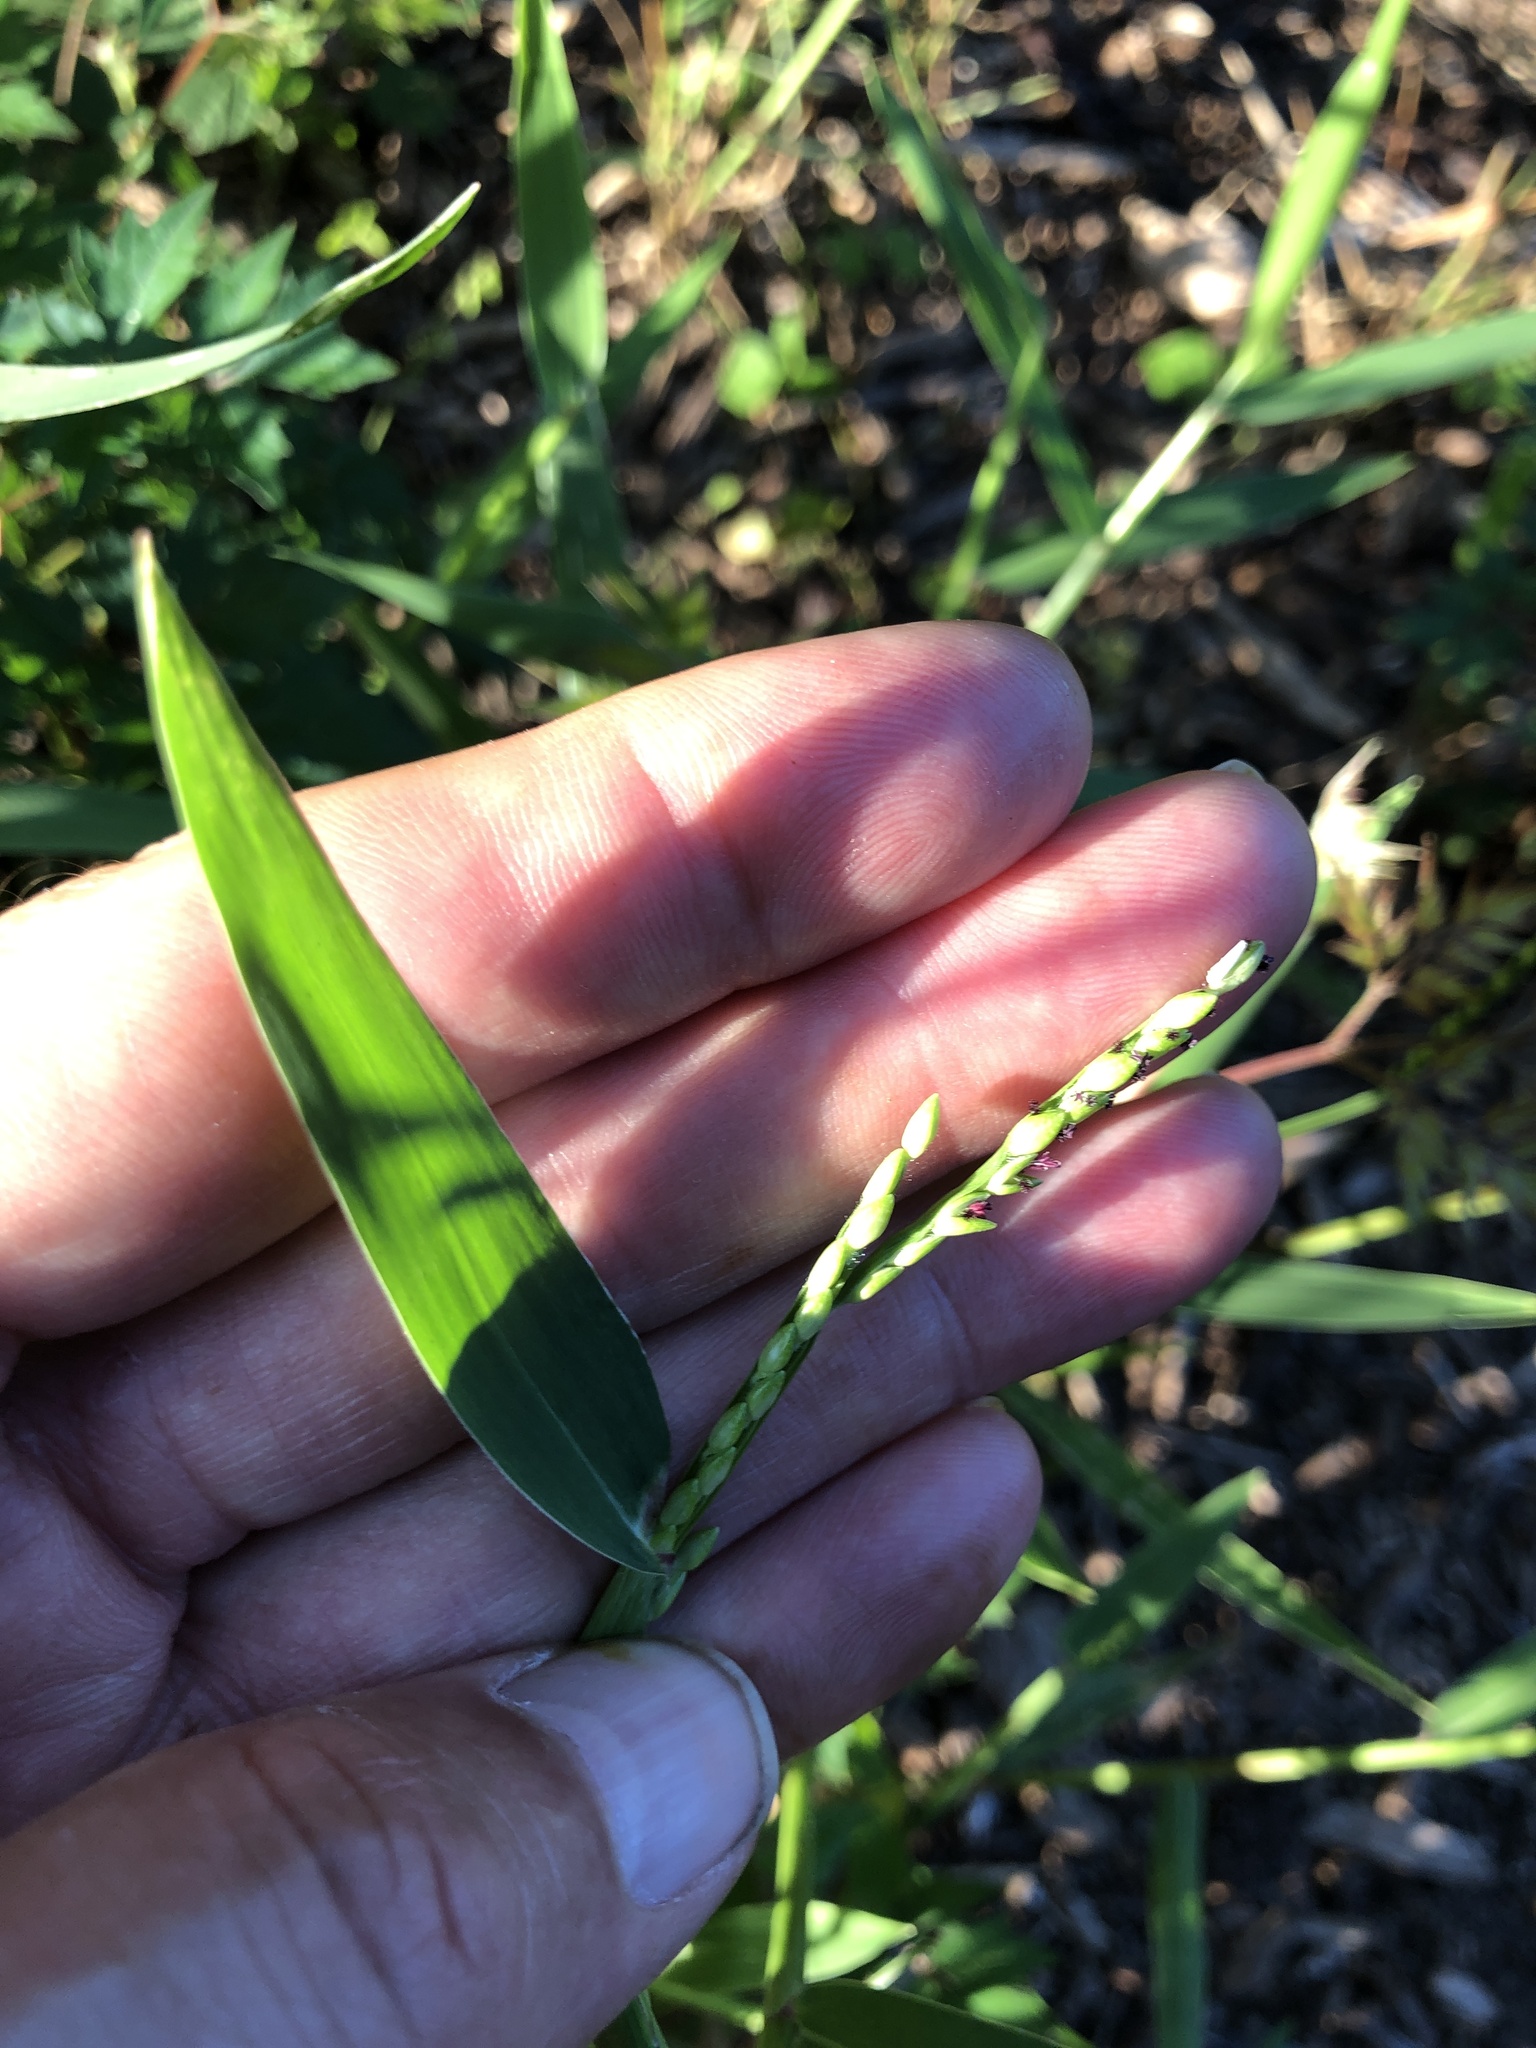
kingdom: Plantae
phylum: Tracheophyta
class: Liliopsida
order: Poales
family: Poaceae
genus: Urochloa
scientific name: Urochloa platyphylla
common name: White para grass
